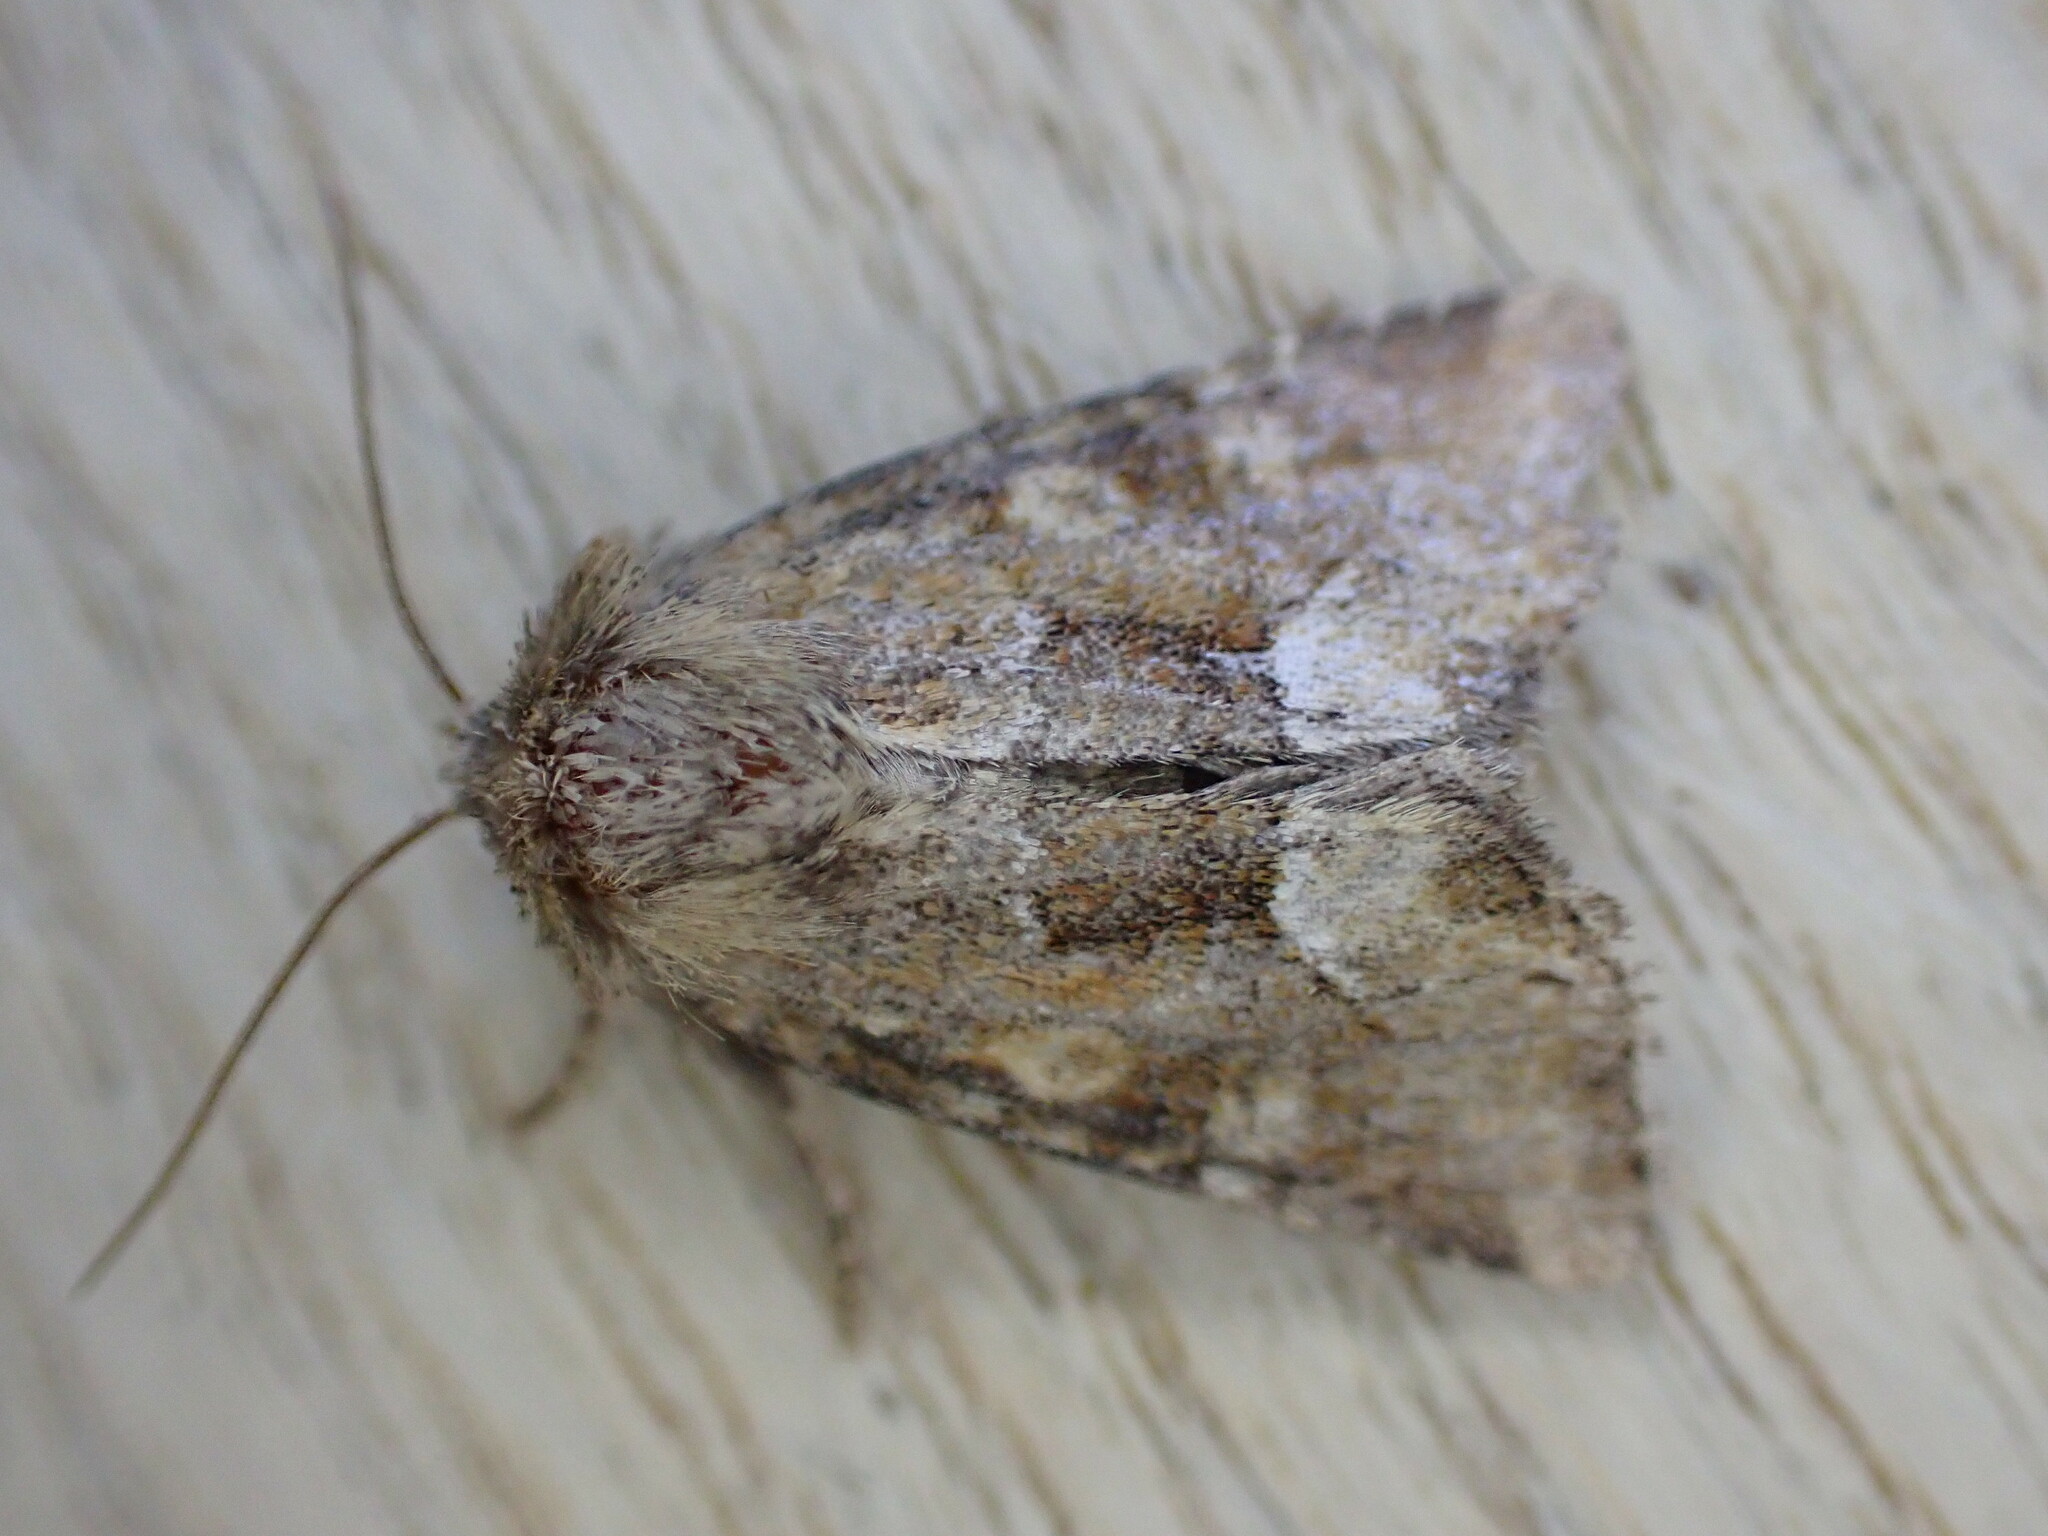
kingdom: Animalia
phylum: Arthropoda
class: Insecta
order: Lepidoptera
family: Noctuidae
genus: Oligia
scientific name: Oligia fasciuncula
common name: Middle-barred minor
